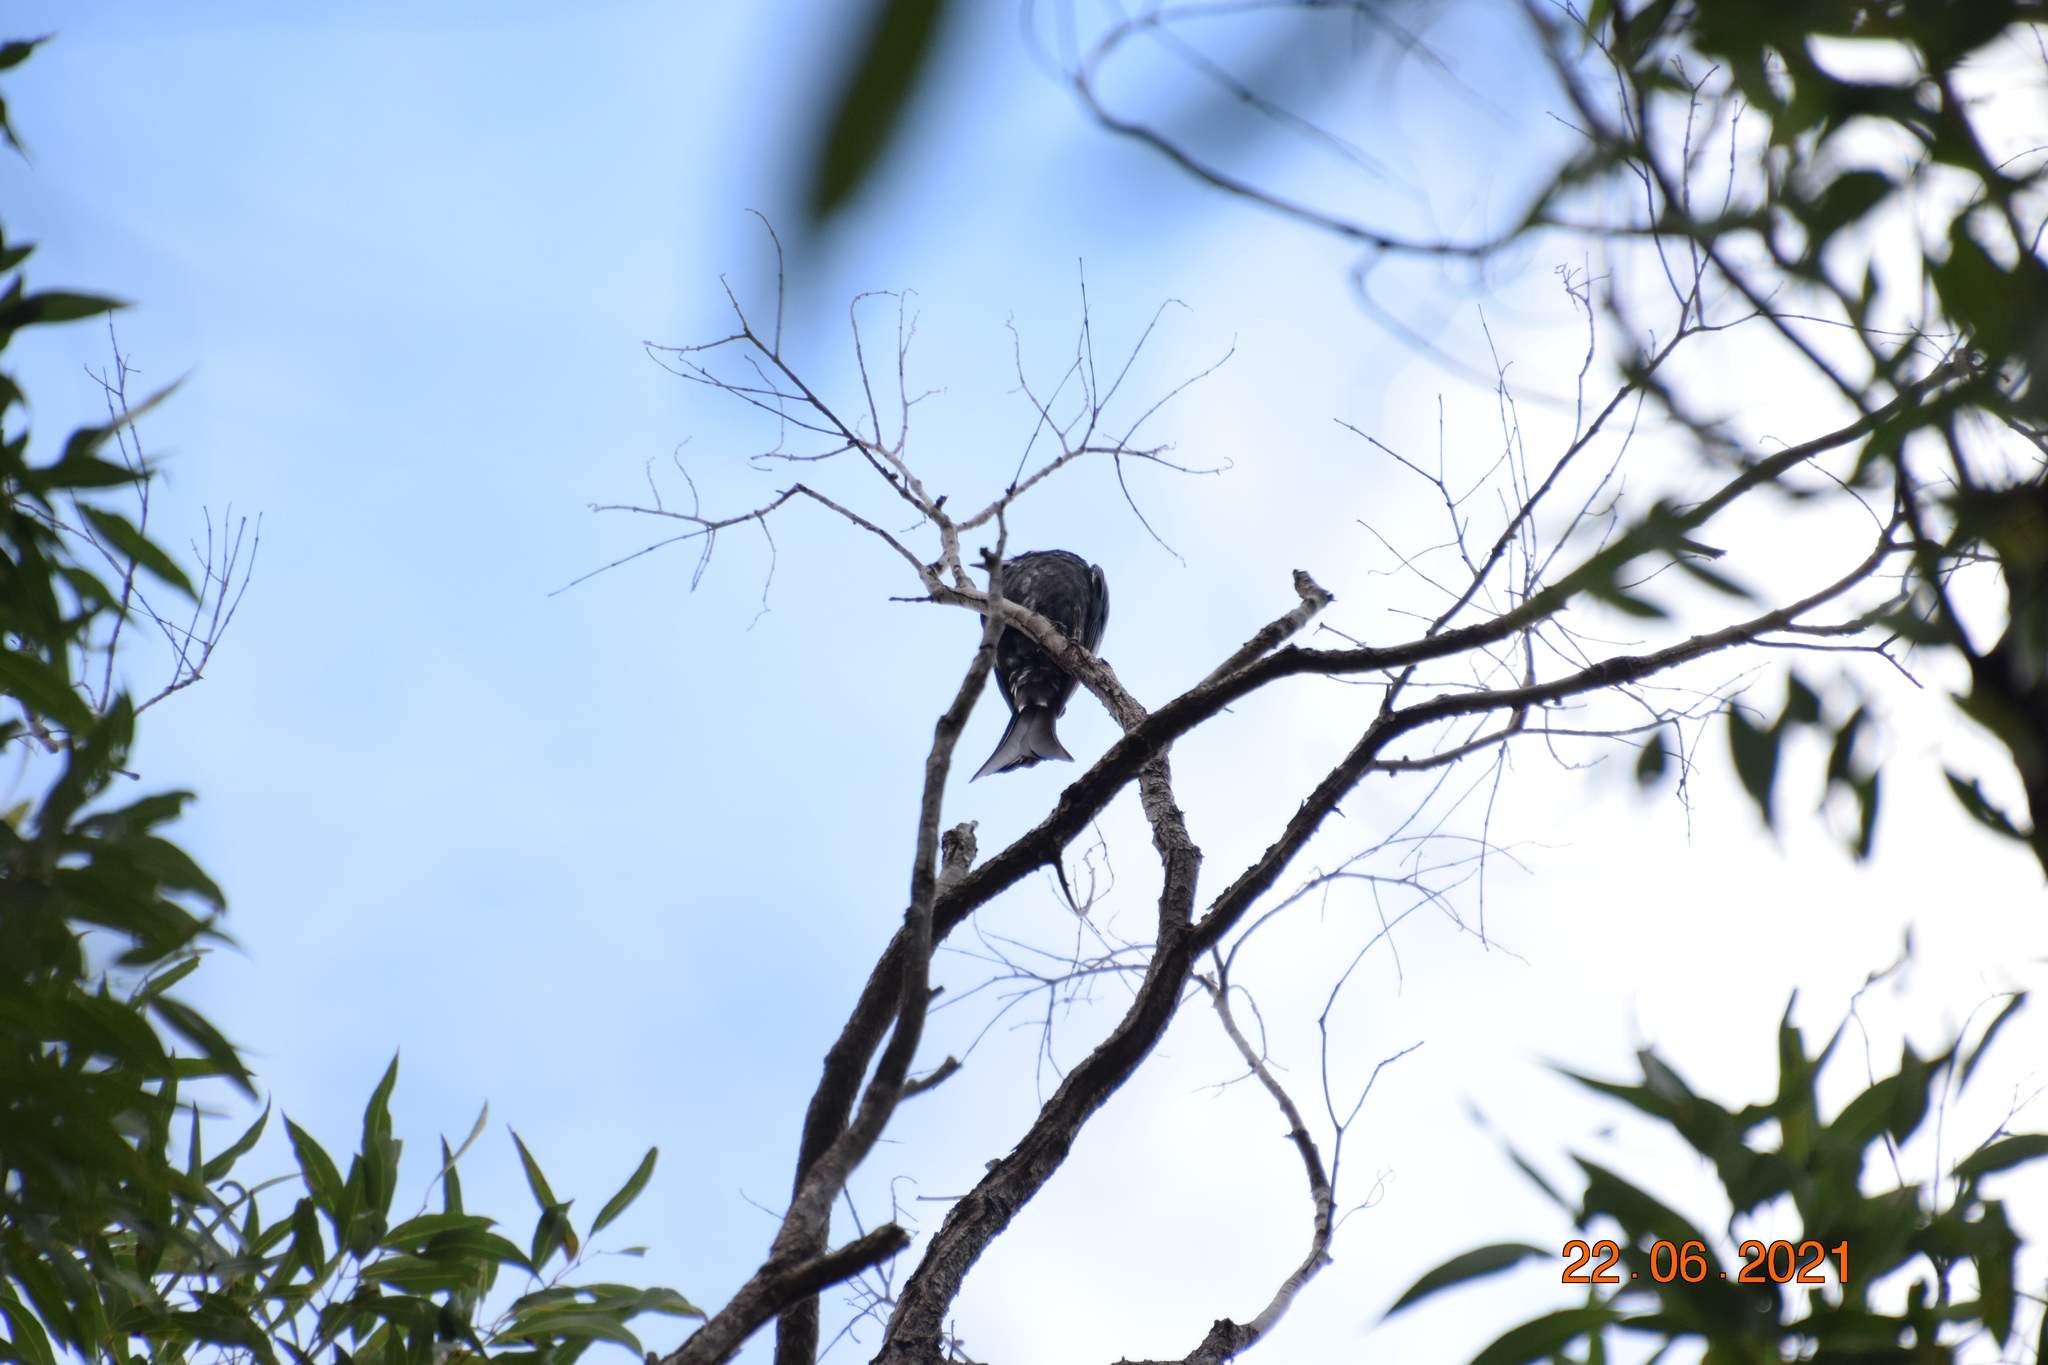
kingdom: Animalia
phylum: Chordata
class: Aves
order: Passeriformes
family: Dicruridae
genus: Dicrurus
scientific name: Dicrurus bracteatus
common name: Spangled drongo
